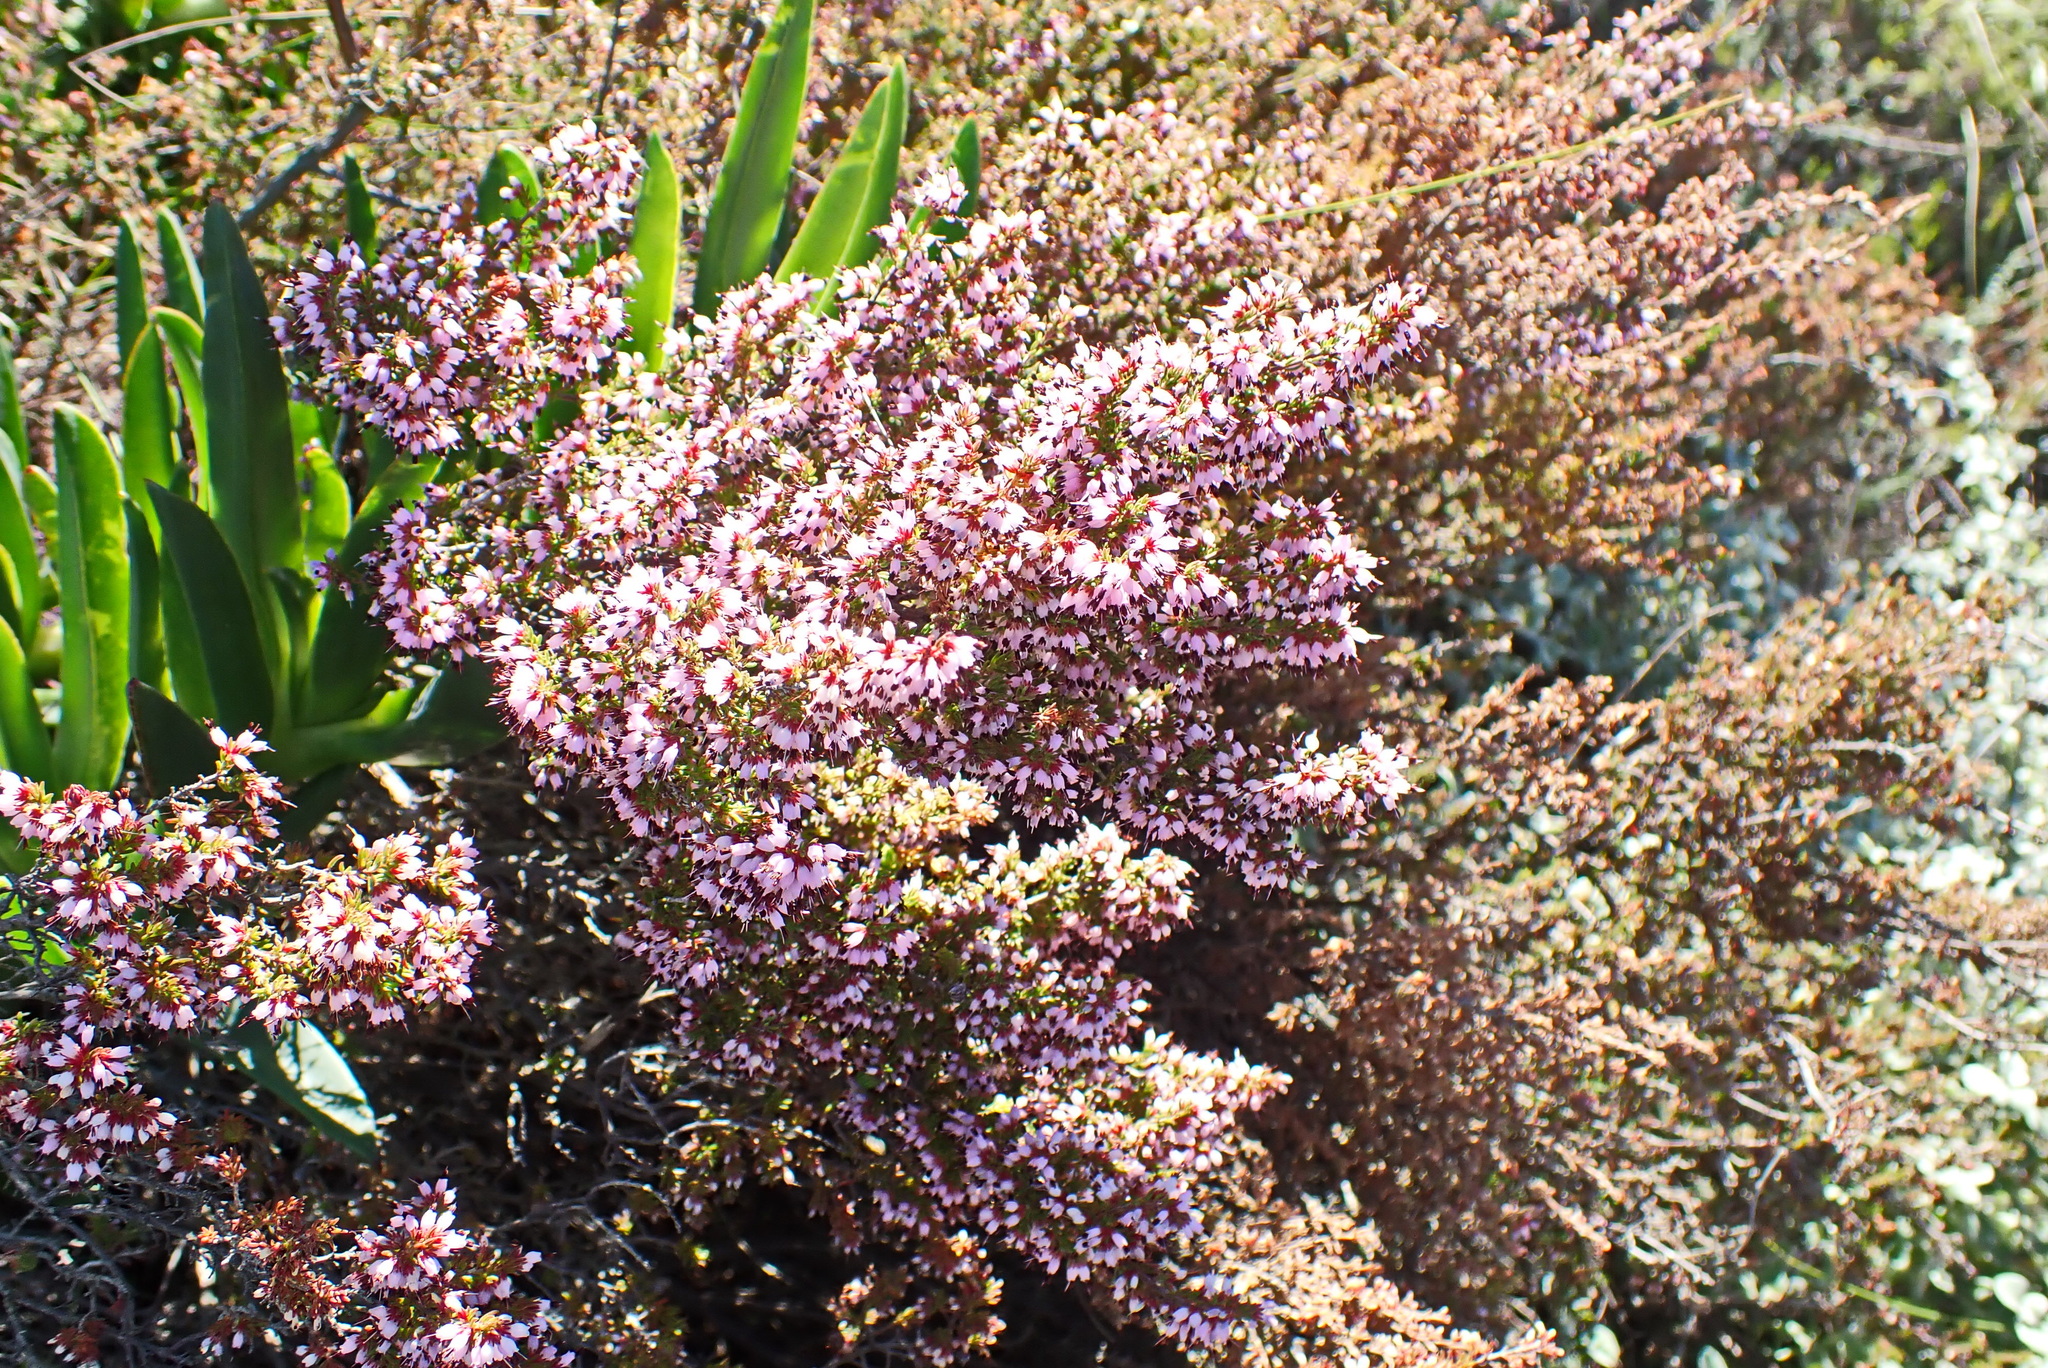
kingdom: Plantae
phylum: Tracheophyta
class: Magnoliopsida
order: Ericales
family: Ericaceae
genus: Erica
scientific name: Erica anguliger
